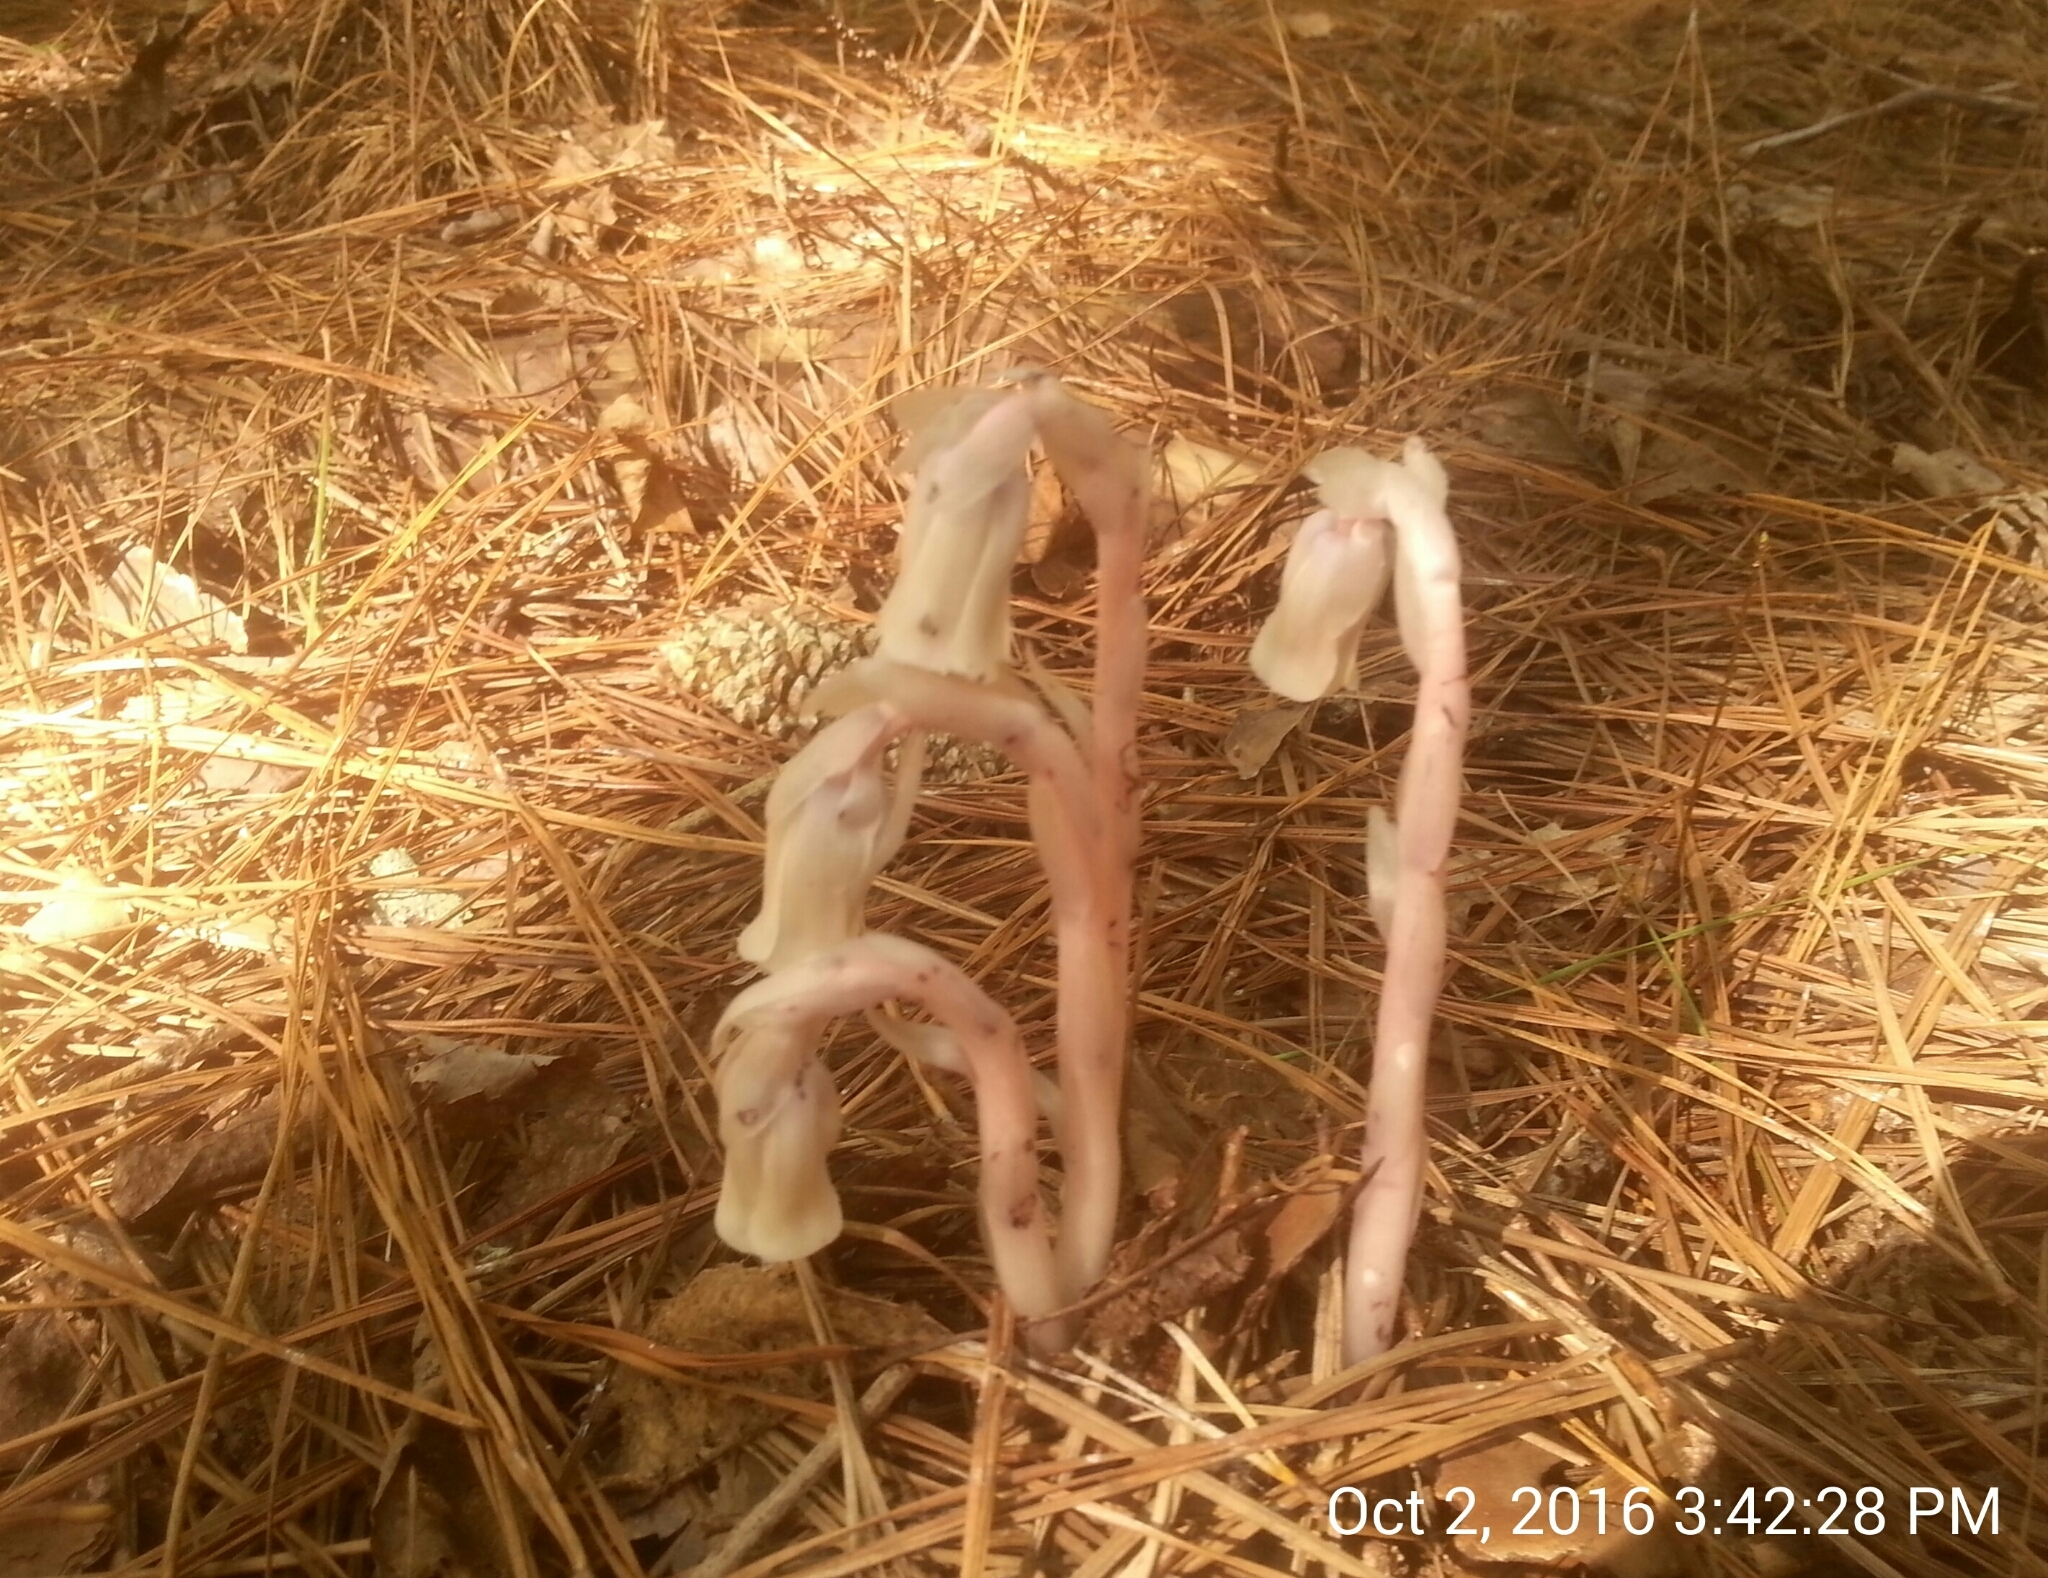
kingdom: Plantae
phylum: Tracheophyta
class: Magnoliopsida
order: Ericales
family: Ericaceae
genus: Monotropa
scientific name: Monotropa uniflora
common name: Convulsion root
